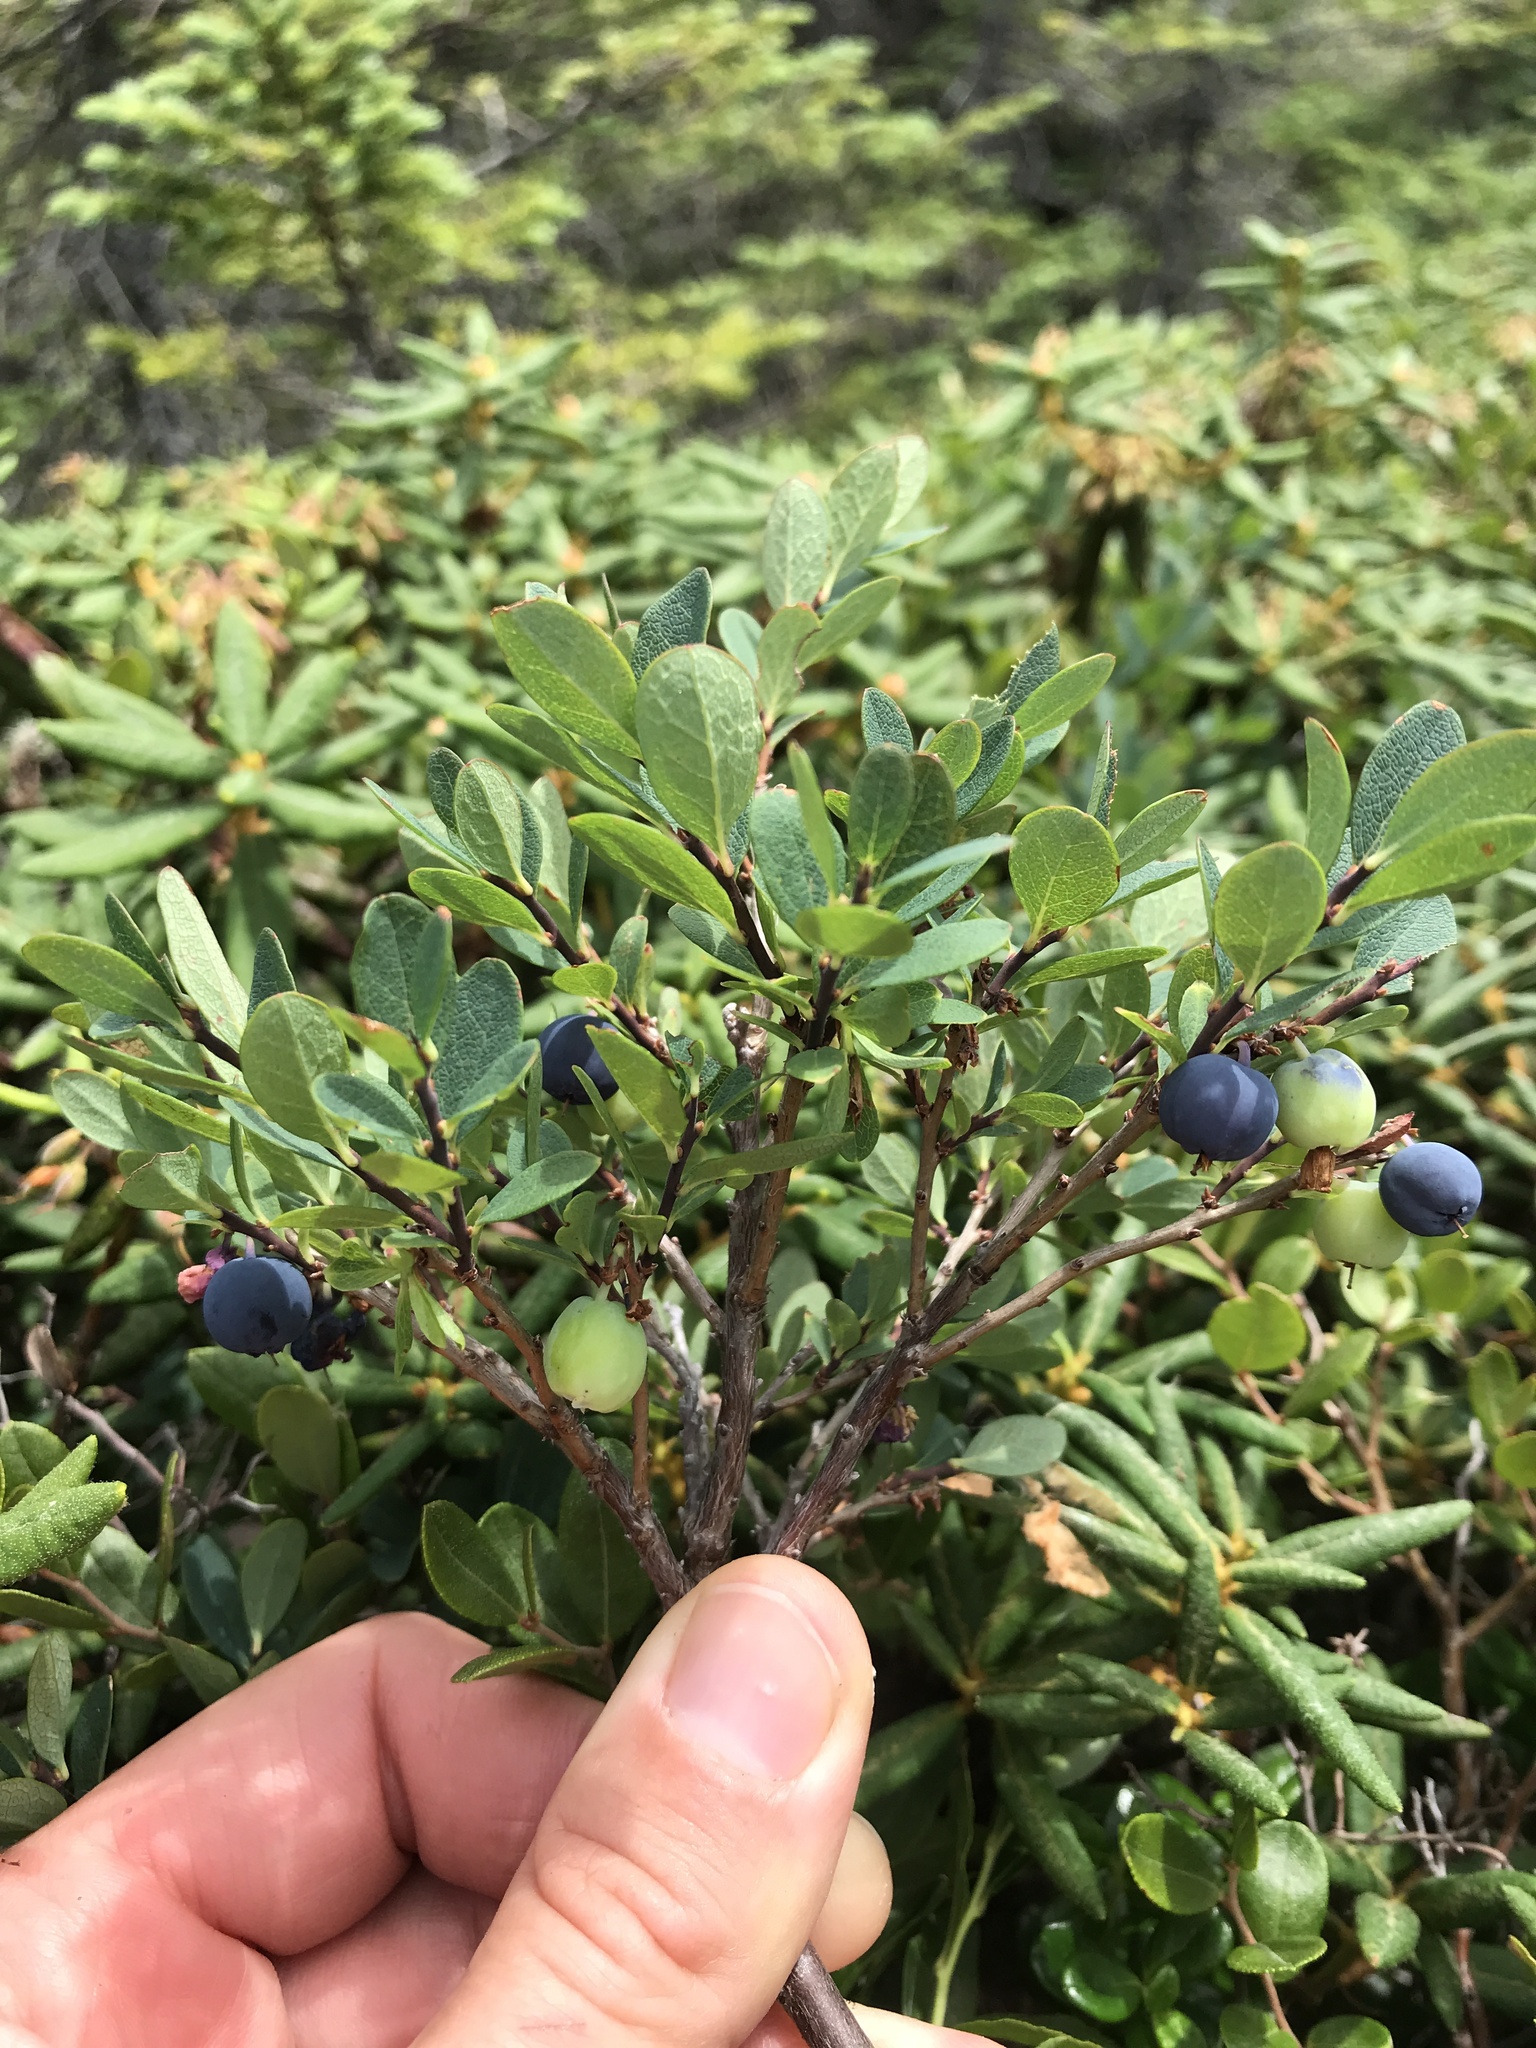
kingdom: Plantae
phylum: Tracheophyta
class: Magnoliopsida
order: Ericales
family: Ericaceae
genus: Vaccinium
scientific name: Vaccinium uliginosum
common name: Bog bilberry
